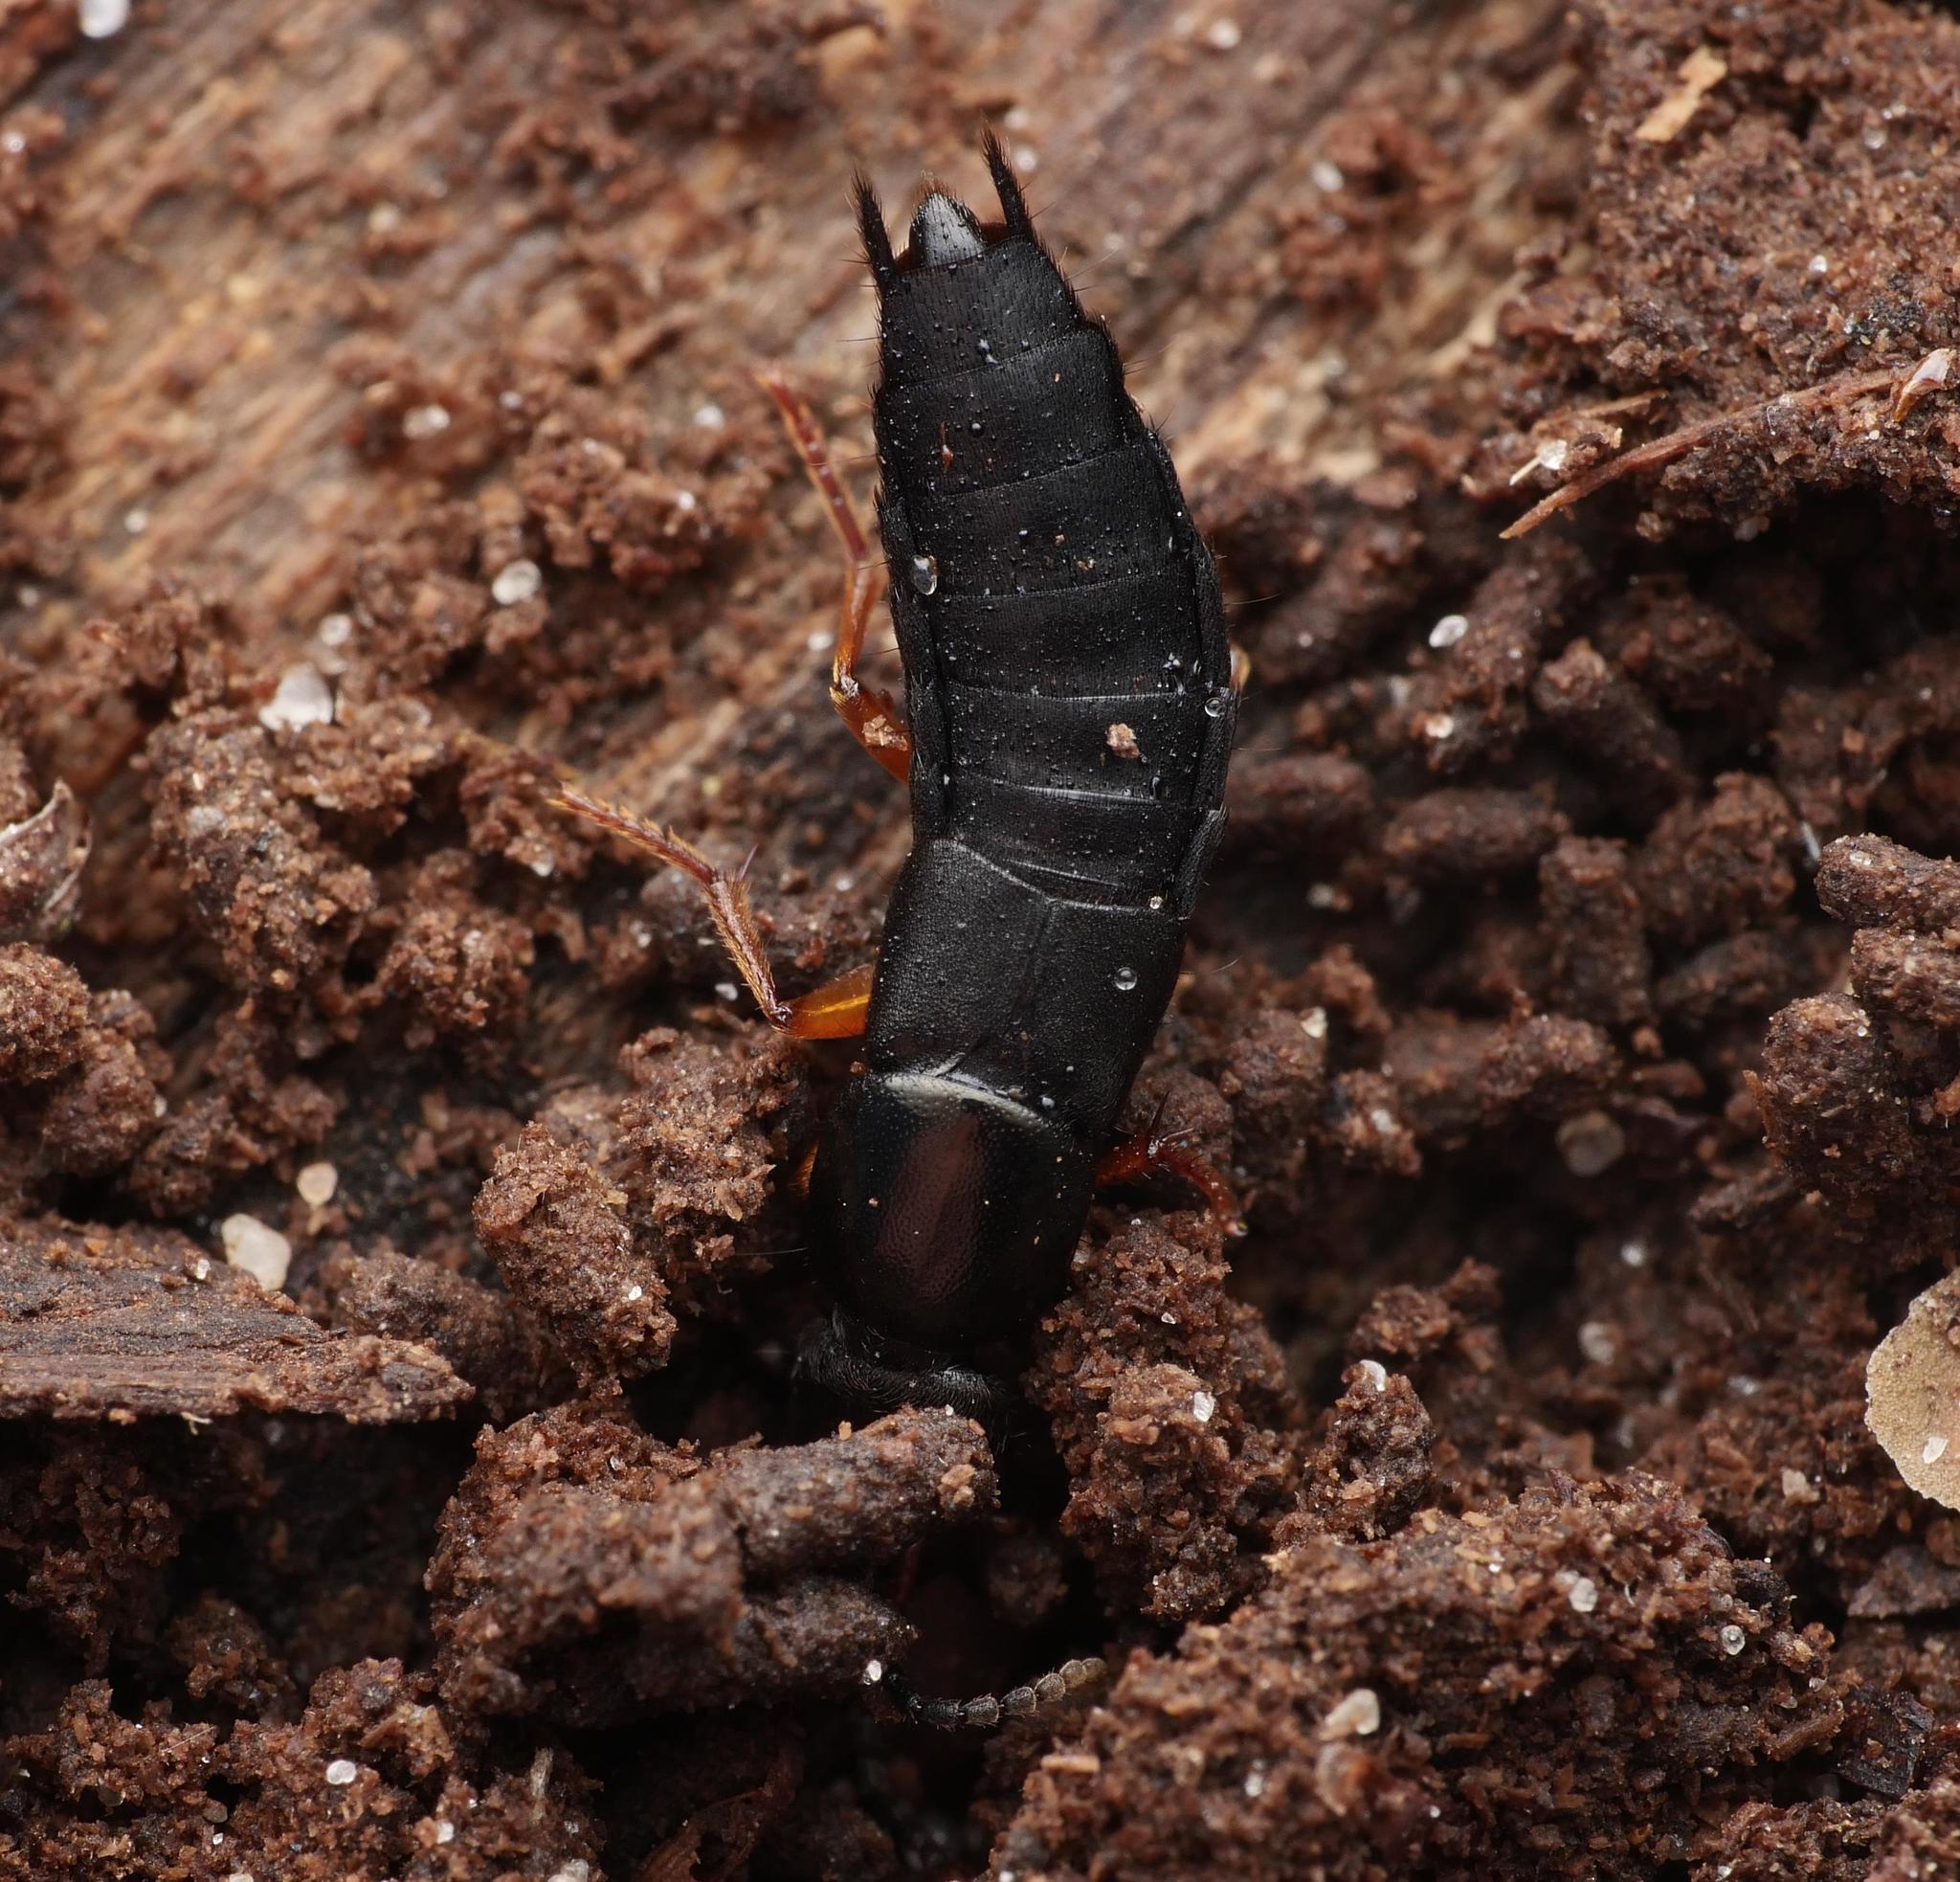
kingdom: Animalia
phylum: Arthropoda
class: Insecta
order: Coleoptera
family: Staphylinidae
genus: Ocypus
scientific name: Ocypus brunnipes
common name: Rove beetle
